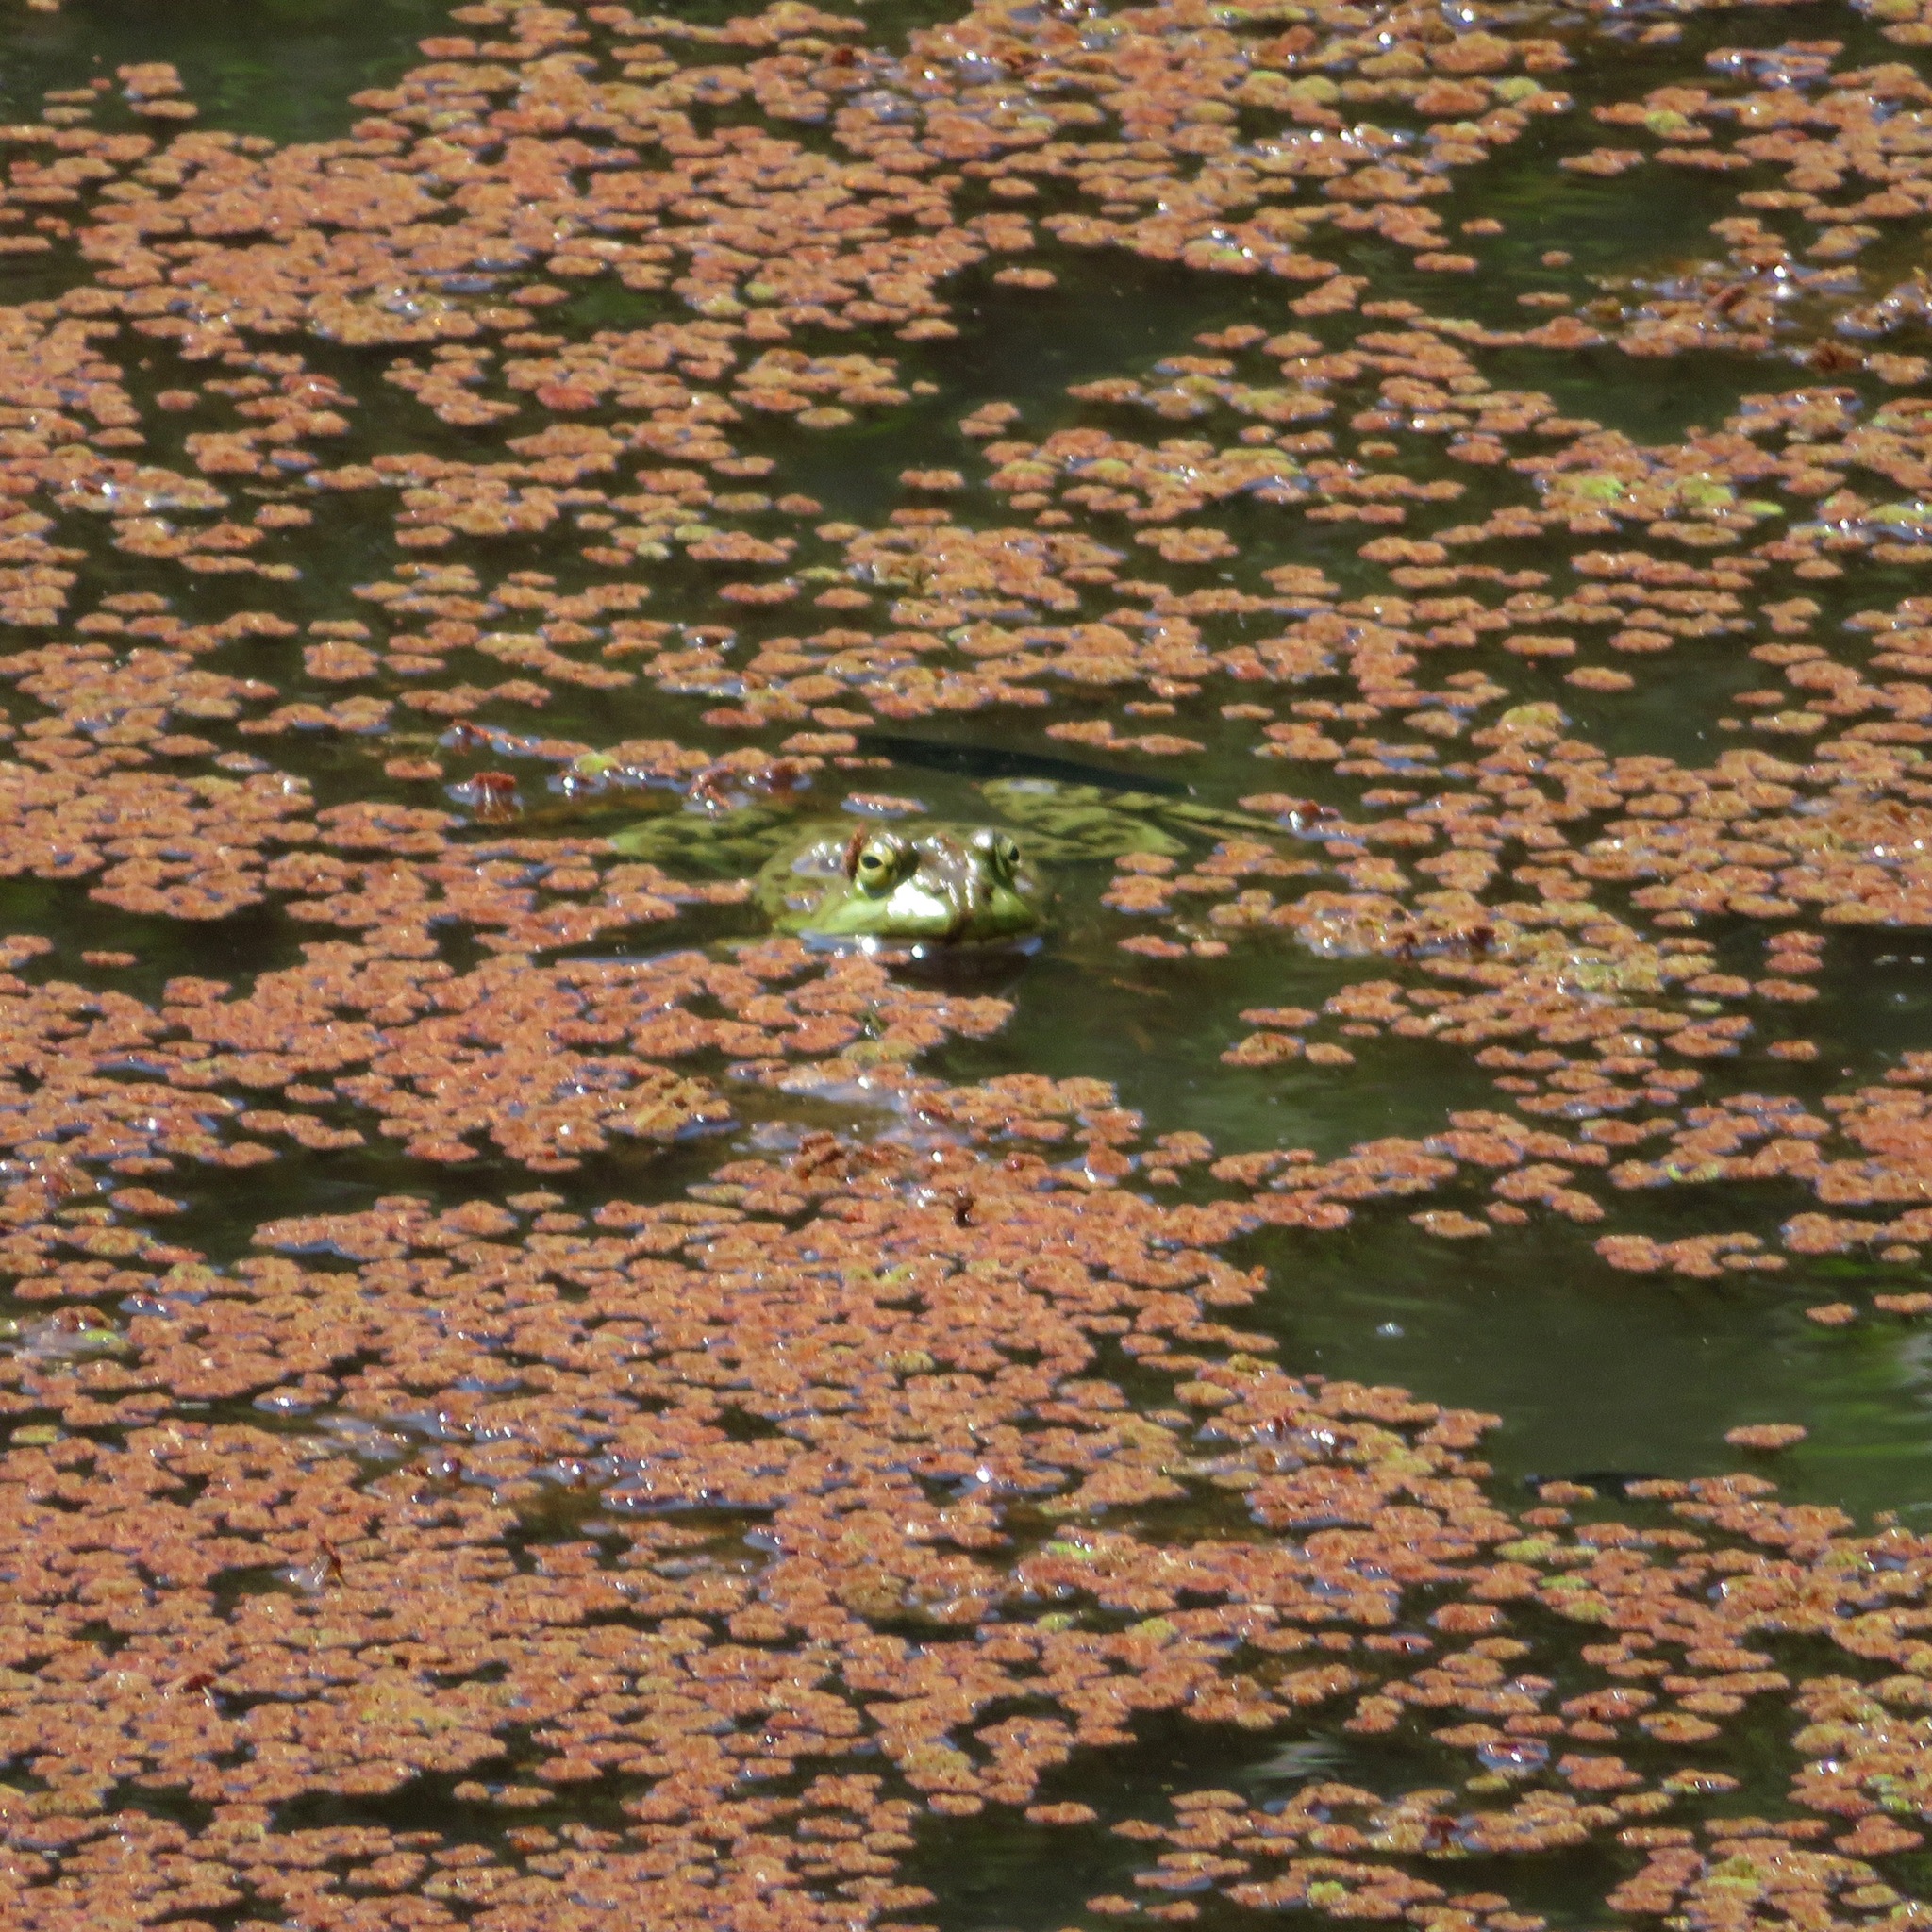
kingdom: Animalia
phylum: Chordata
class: Amphibia
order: Anura
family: Ranidae
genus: Lithobates
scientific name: Lithobates catesbeianus
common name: American bullfrog
